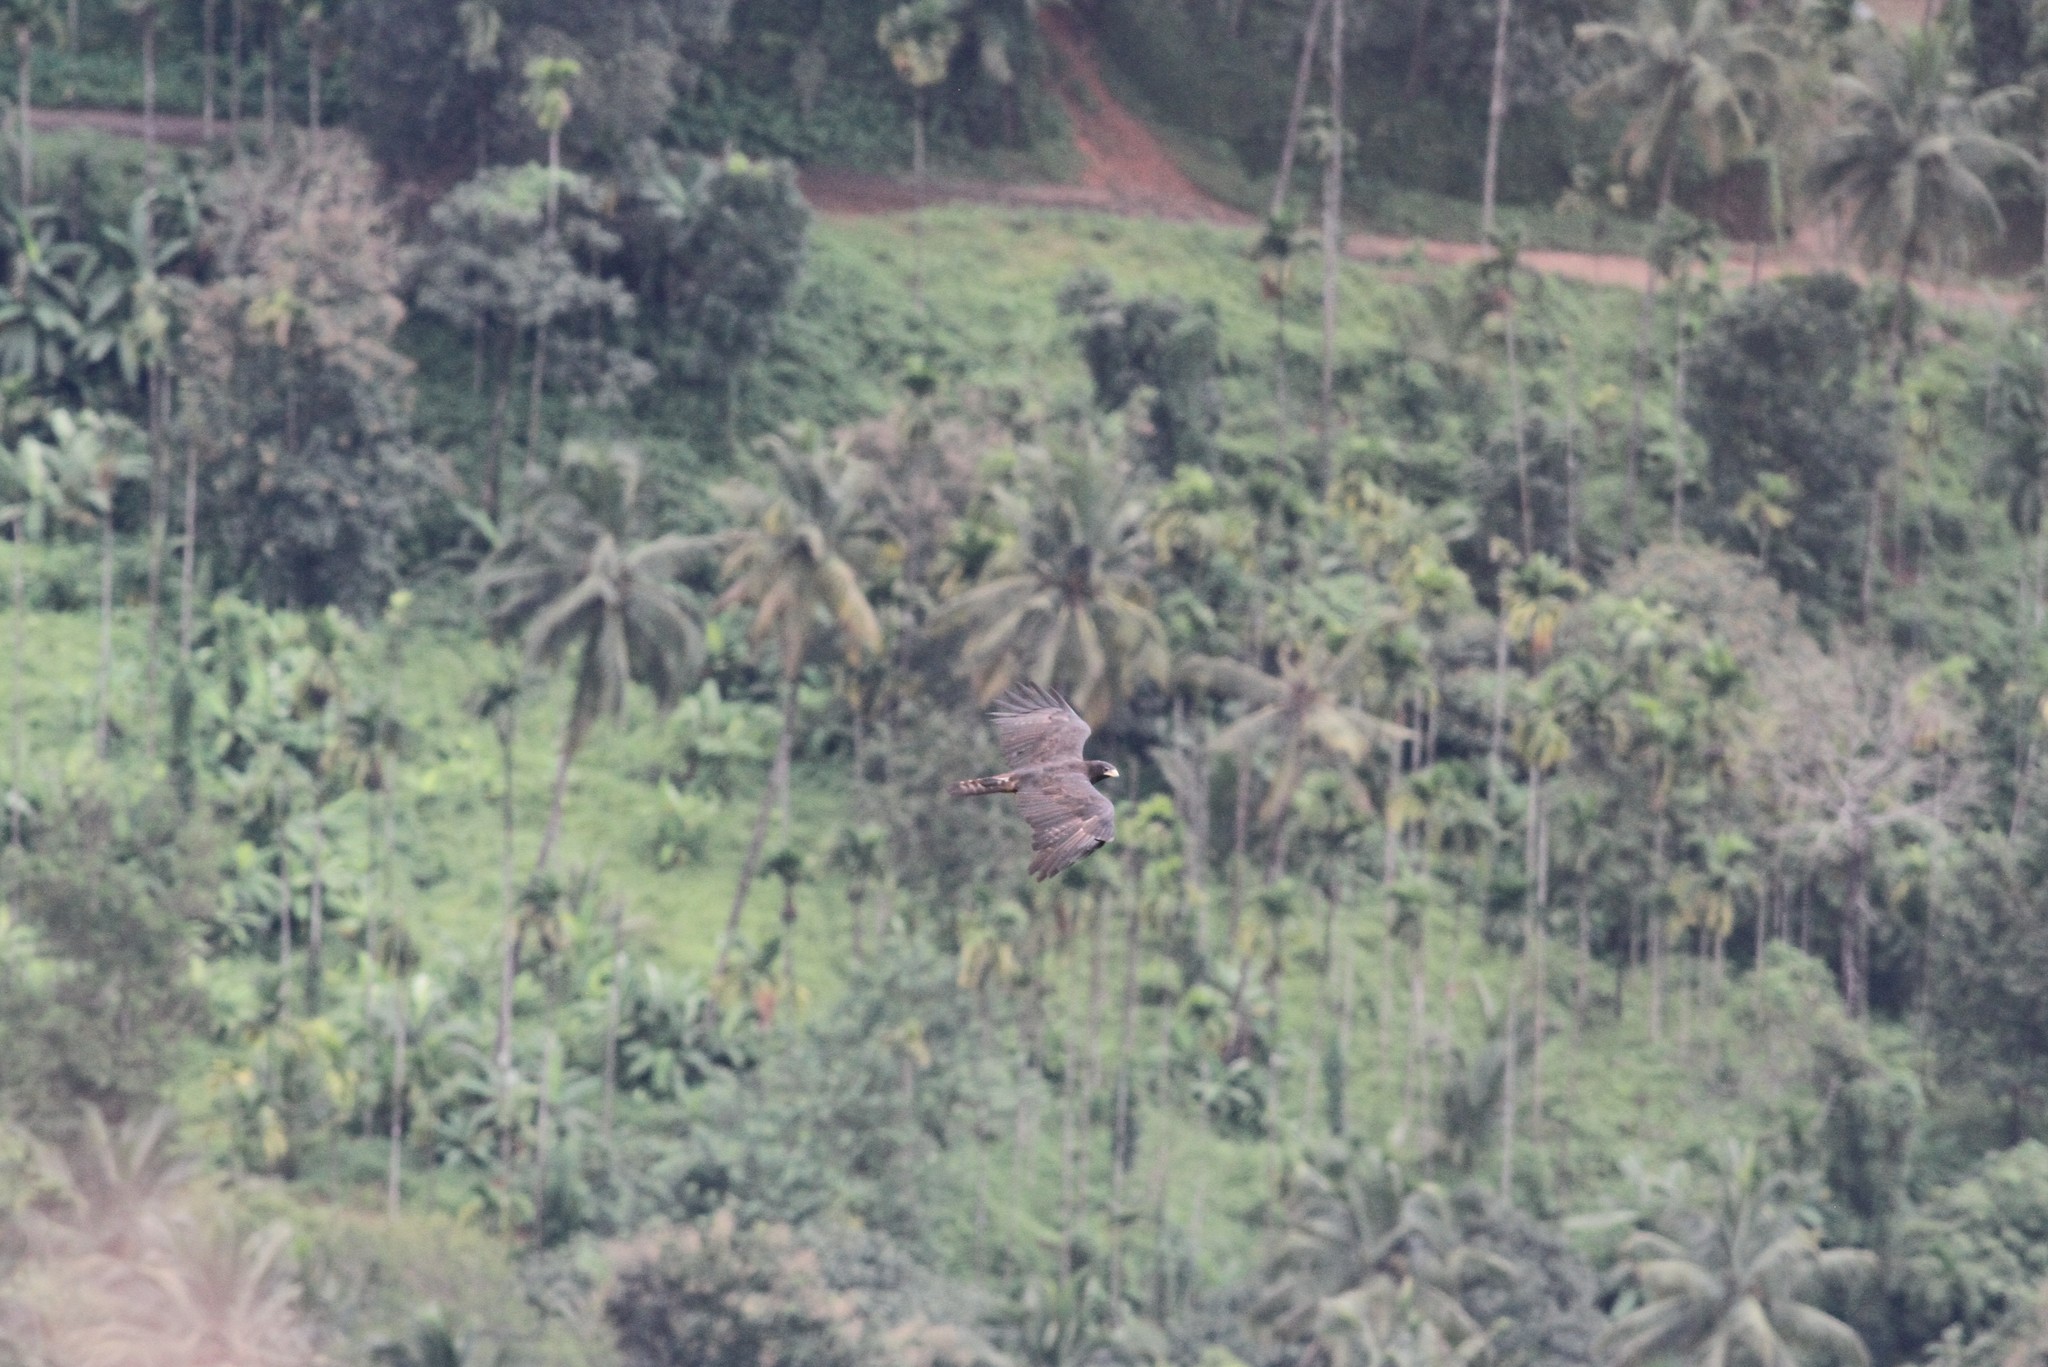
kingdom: Animalia
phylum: Chordata
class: Aves
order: Accipitriformes
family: Accipitridae
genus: Ictinaetus
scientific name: Ictinaetus malayensis
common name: Black eagle
